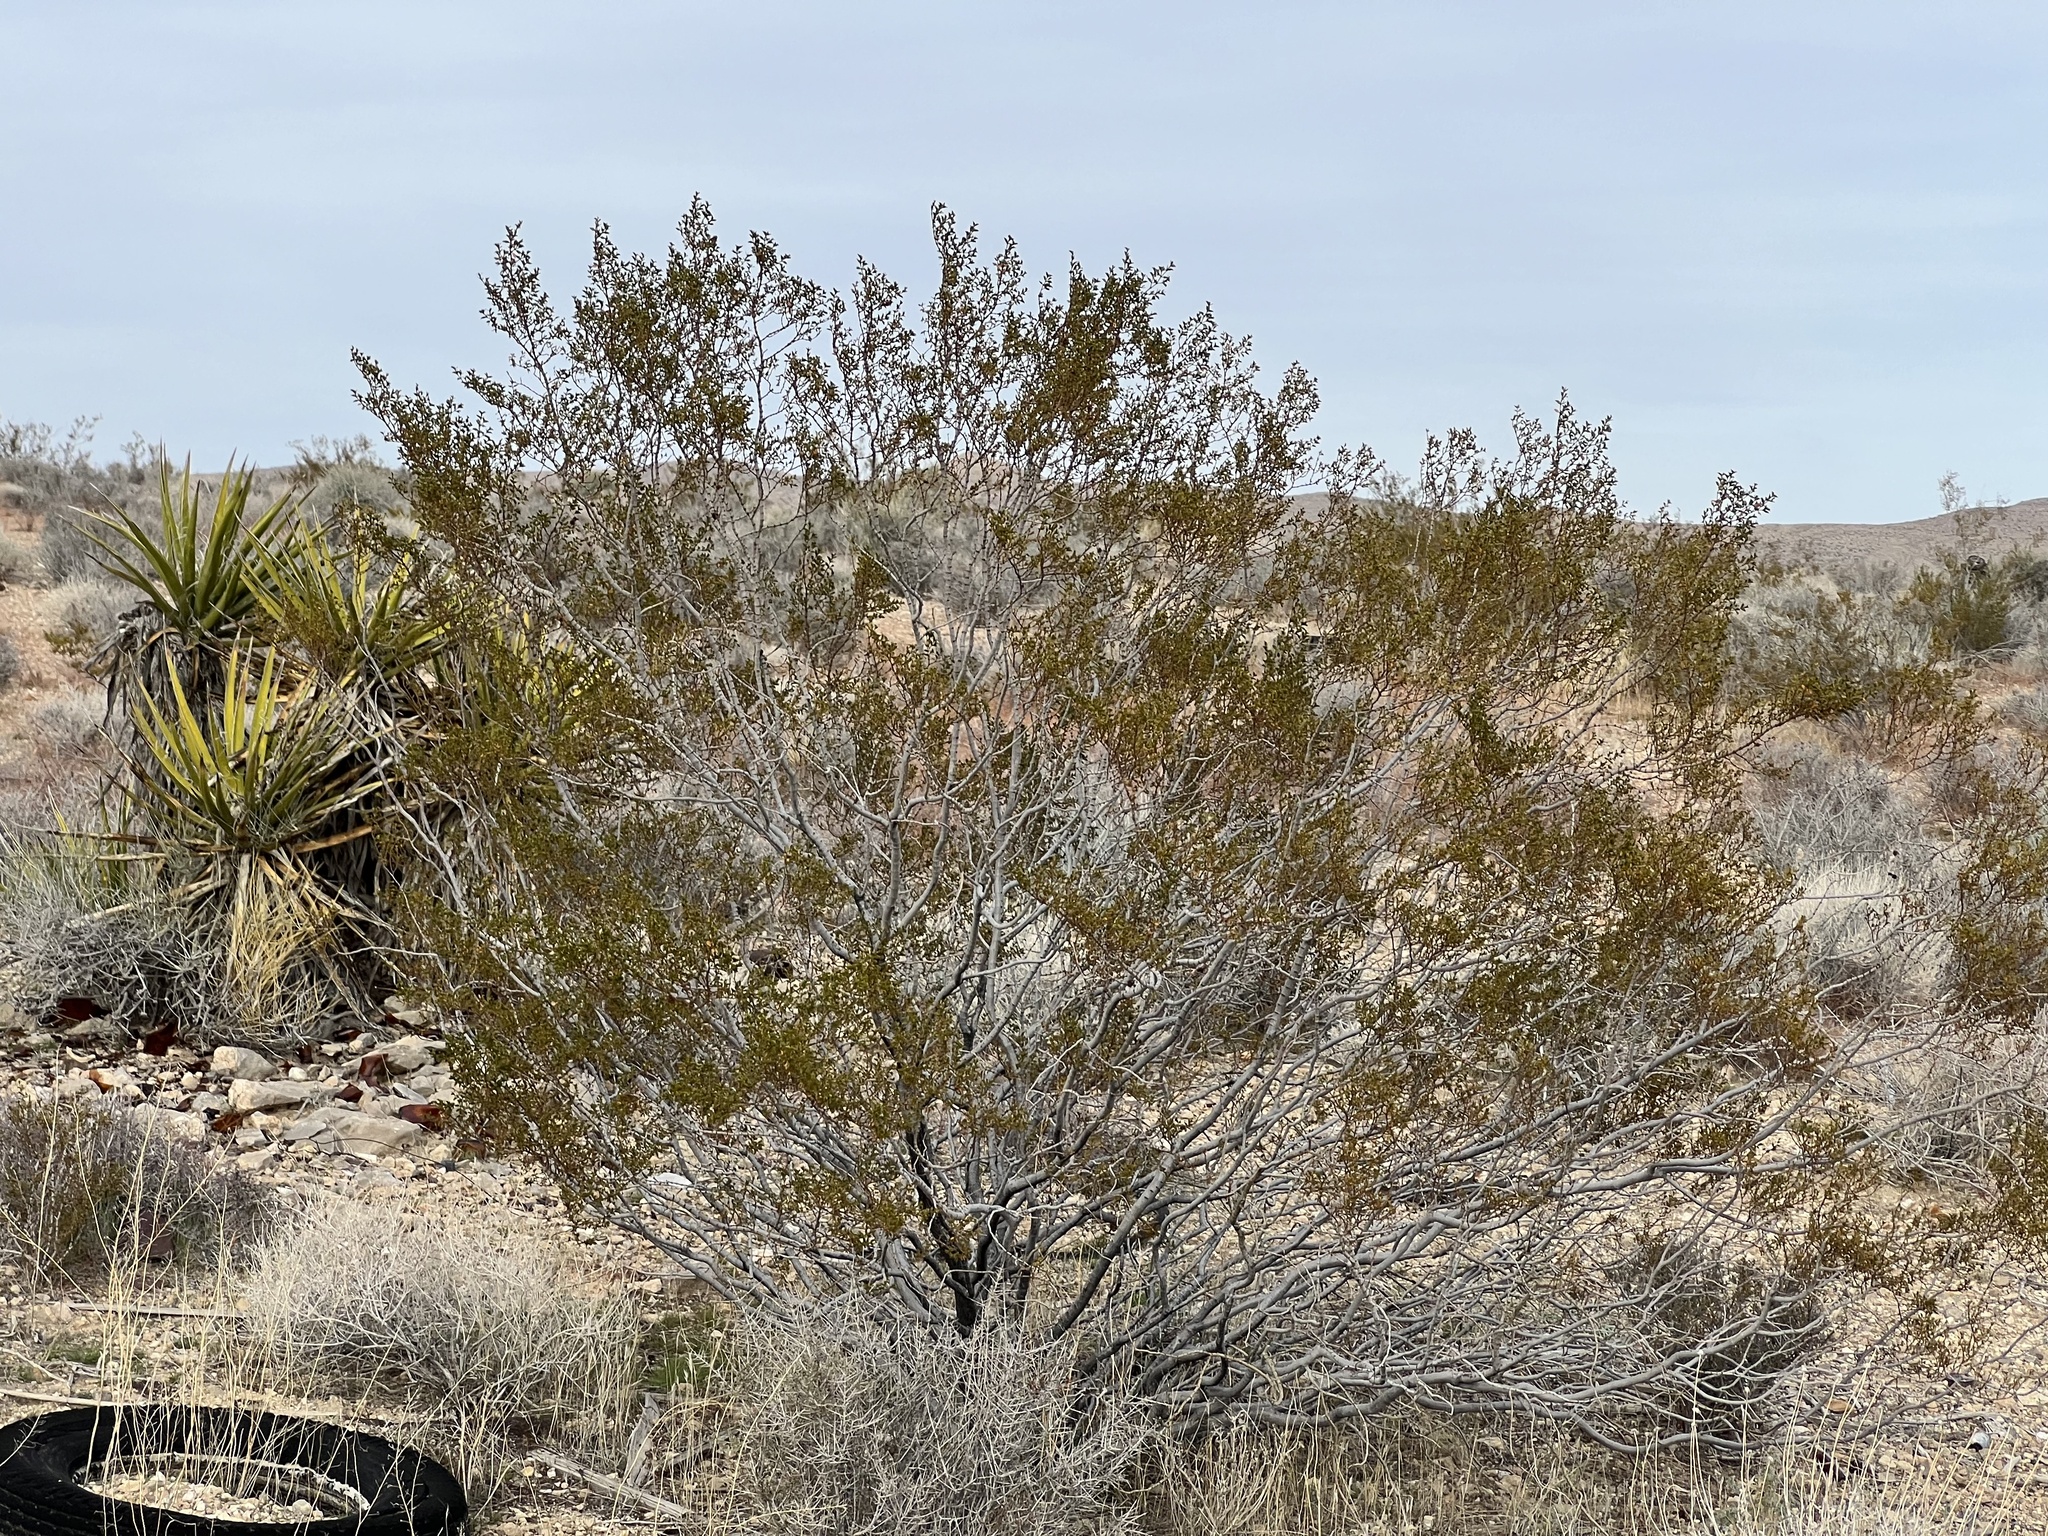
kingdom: Plantae
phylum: Tracheophyta
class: Magnoliopsida
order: Zygophyllales
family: Zygophyllaceae
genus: Larrea
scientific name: Larrea tridentata
